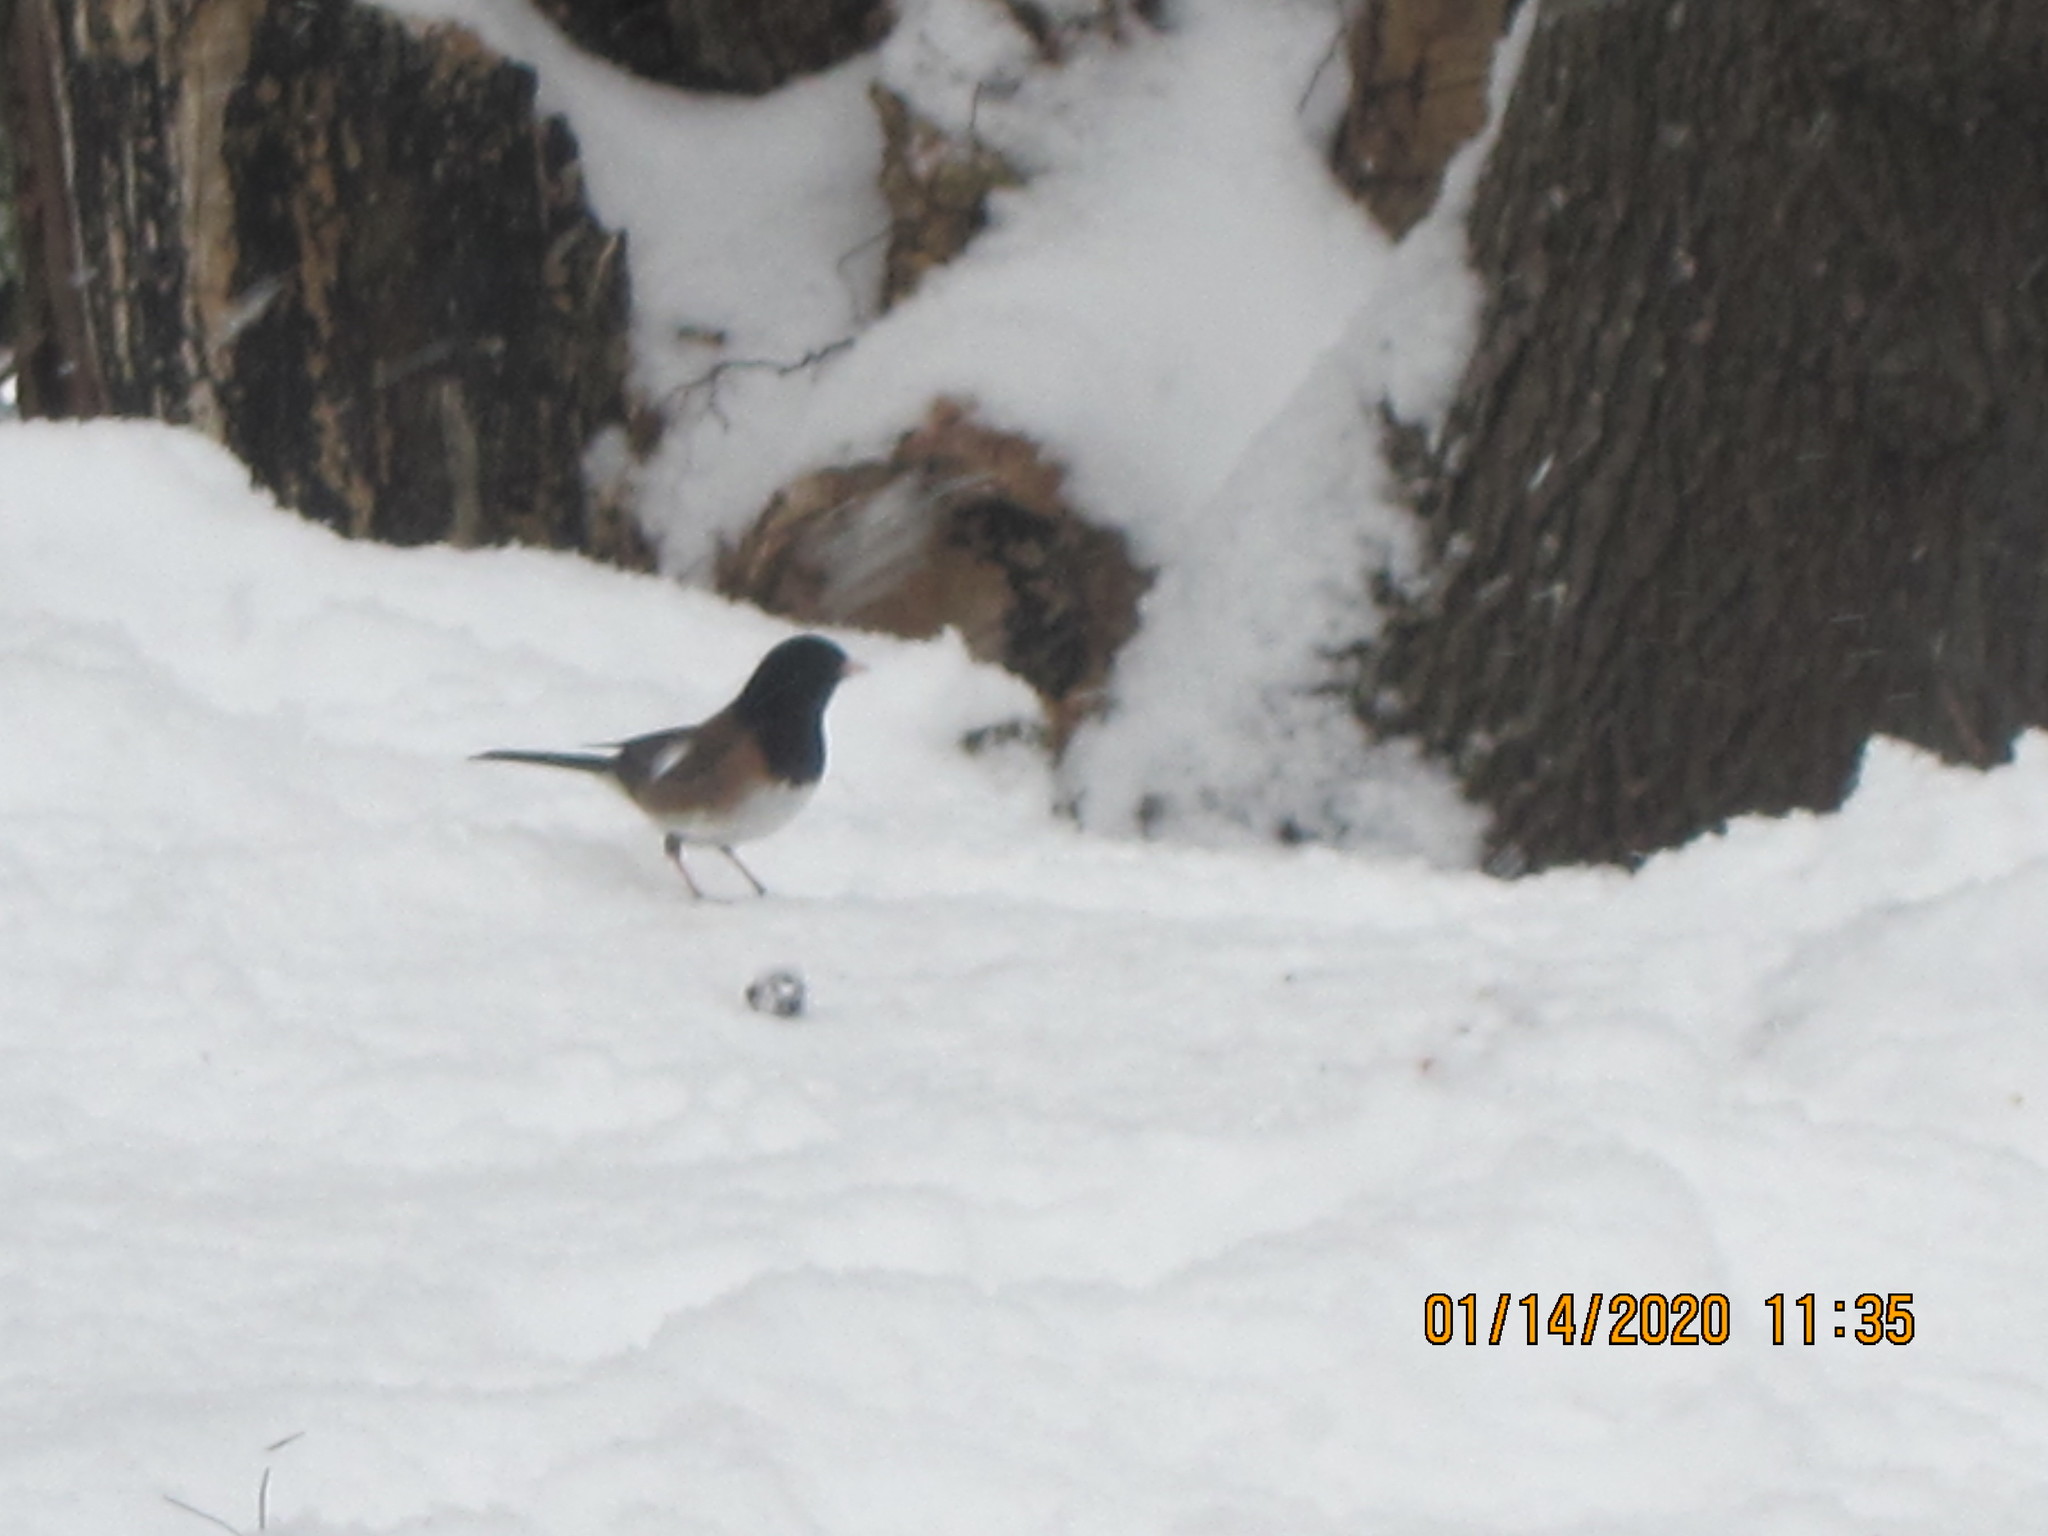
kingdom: Animalia
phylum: Chordata
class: Aves
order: Passeriformes
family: Passerellidae
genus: Junco
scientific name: Junco hyemalis
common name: Dark-eyed junco
